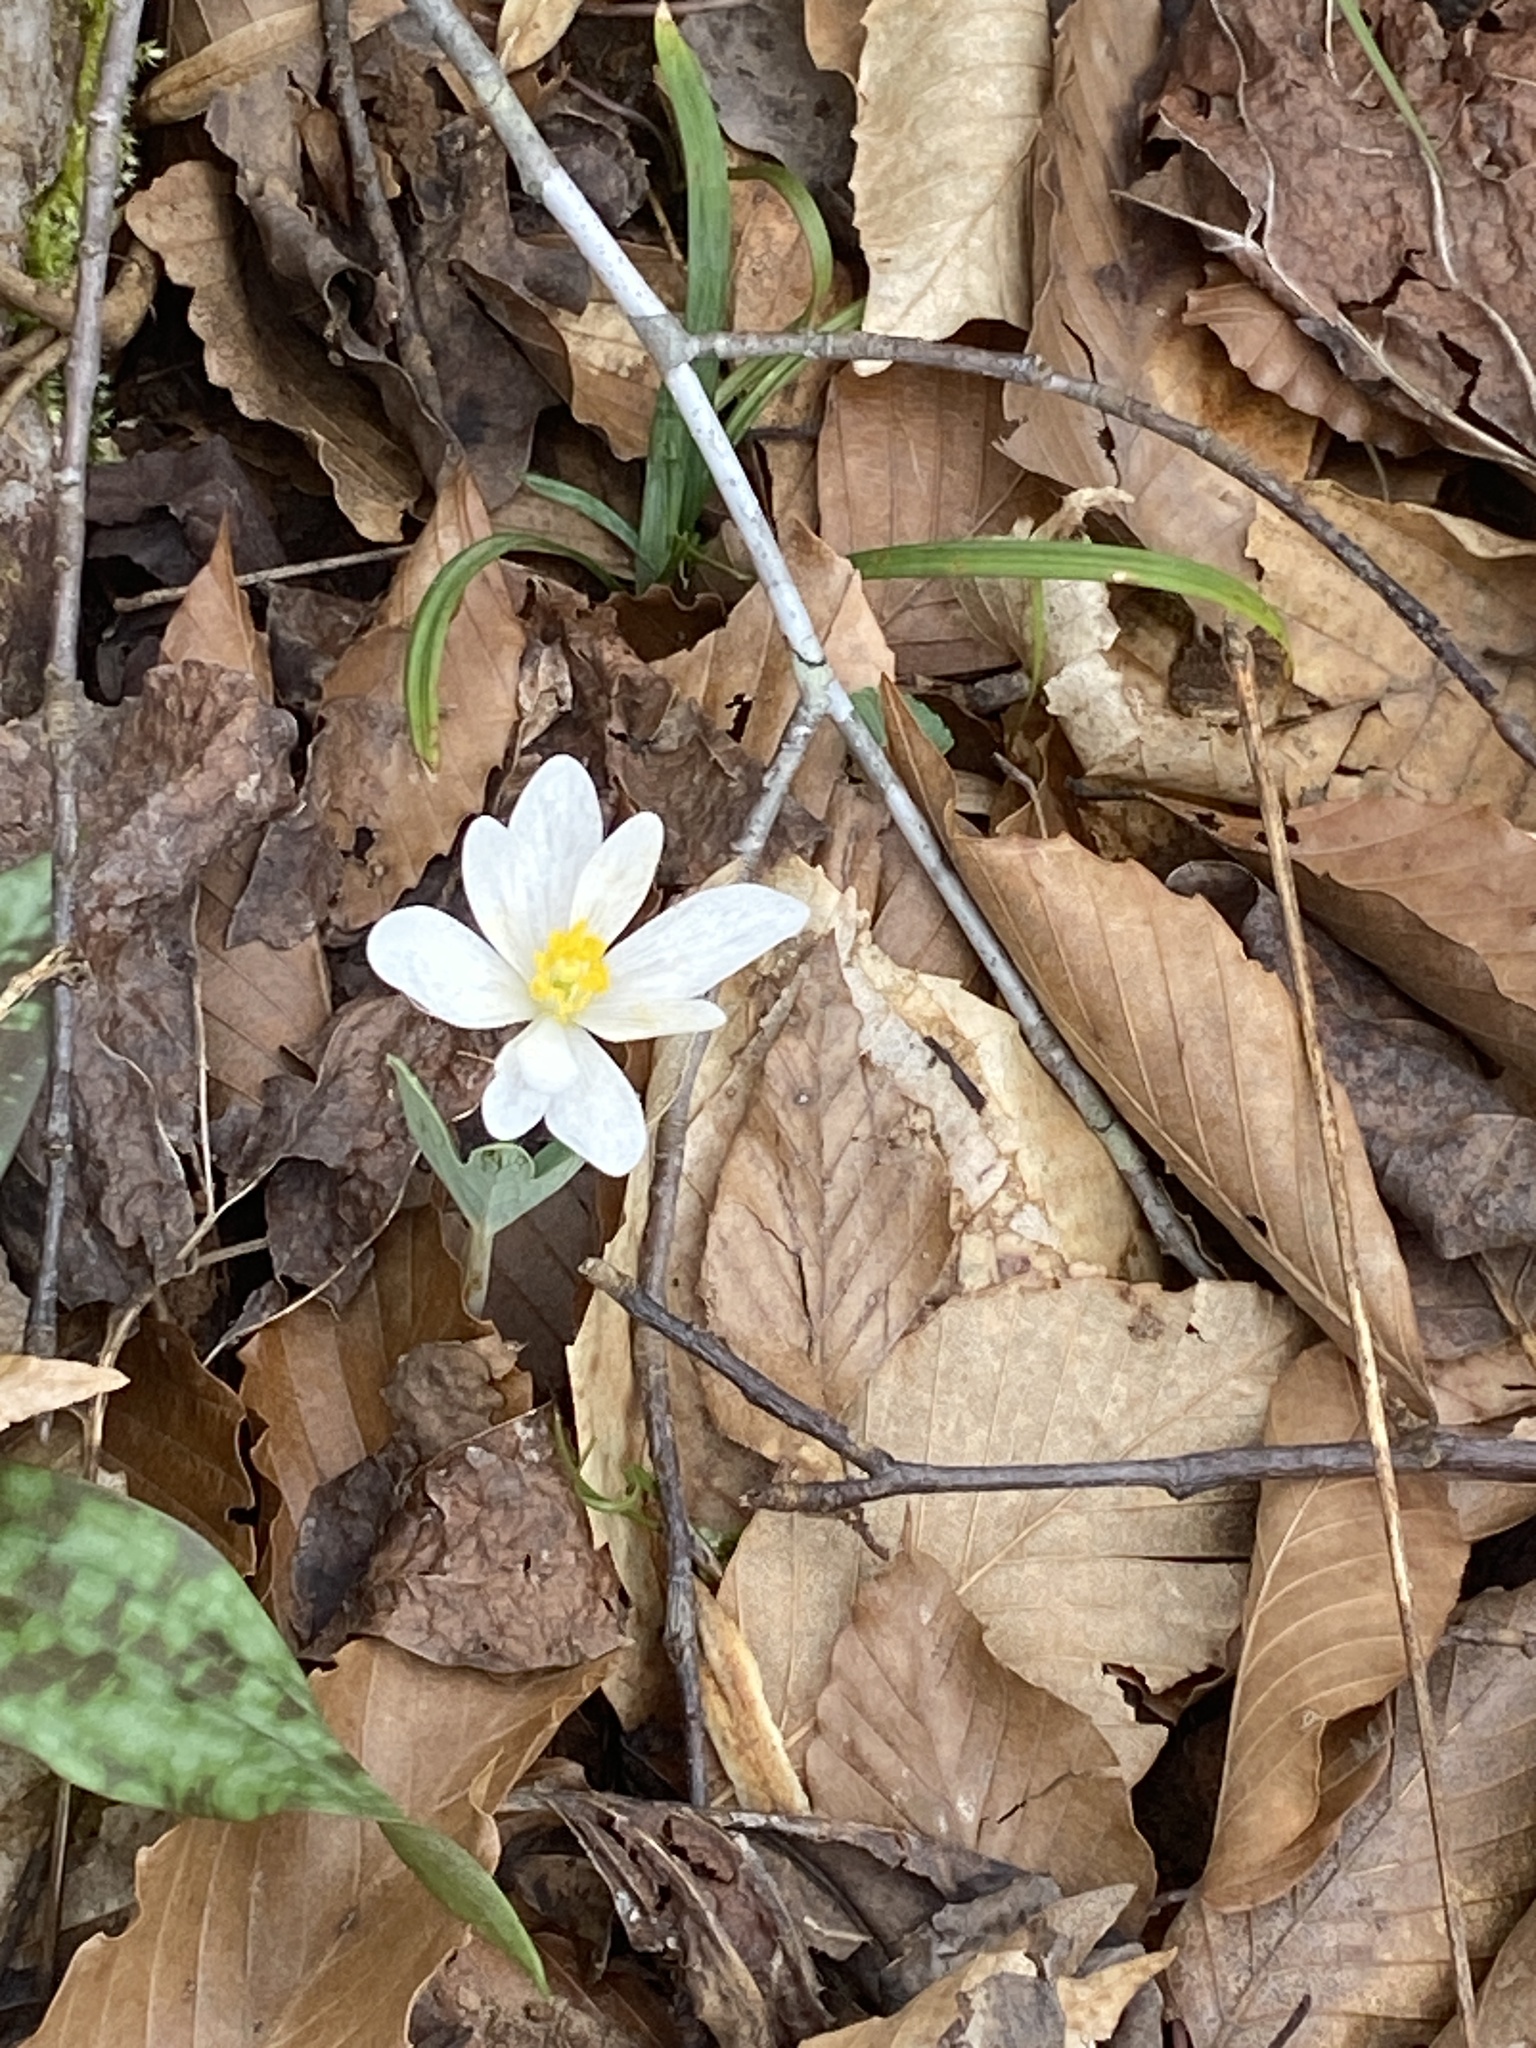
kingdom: Plantae
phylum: Tracheophyta
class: Magnoliopsida
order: Ranunculales
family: Papaveraceae
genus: Sanguinaria
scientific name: Sanguinaria canadensis
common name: Bloodroot
